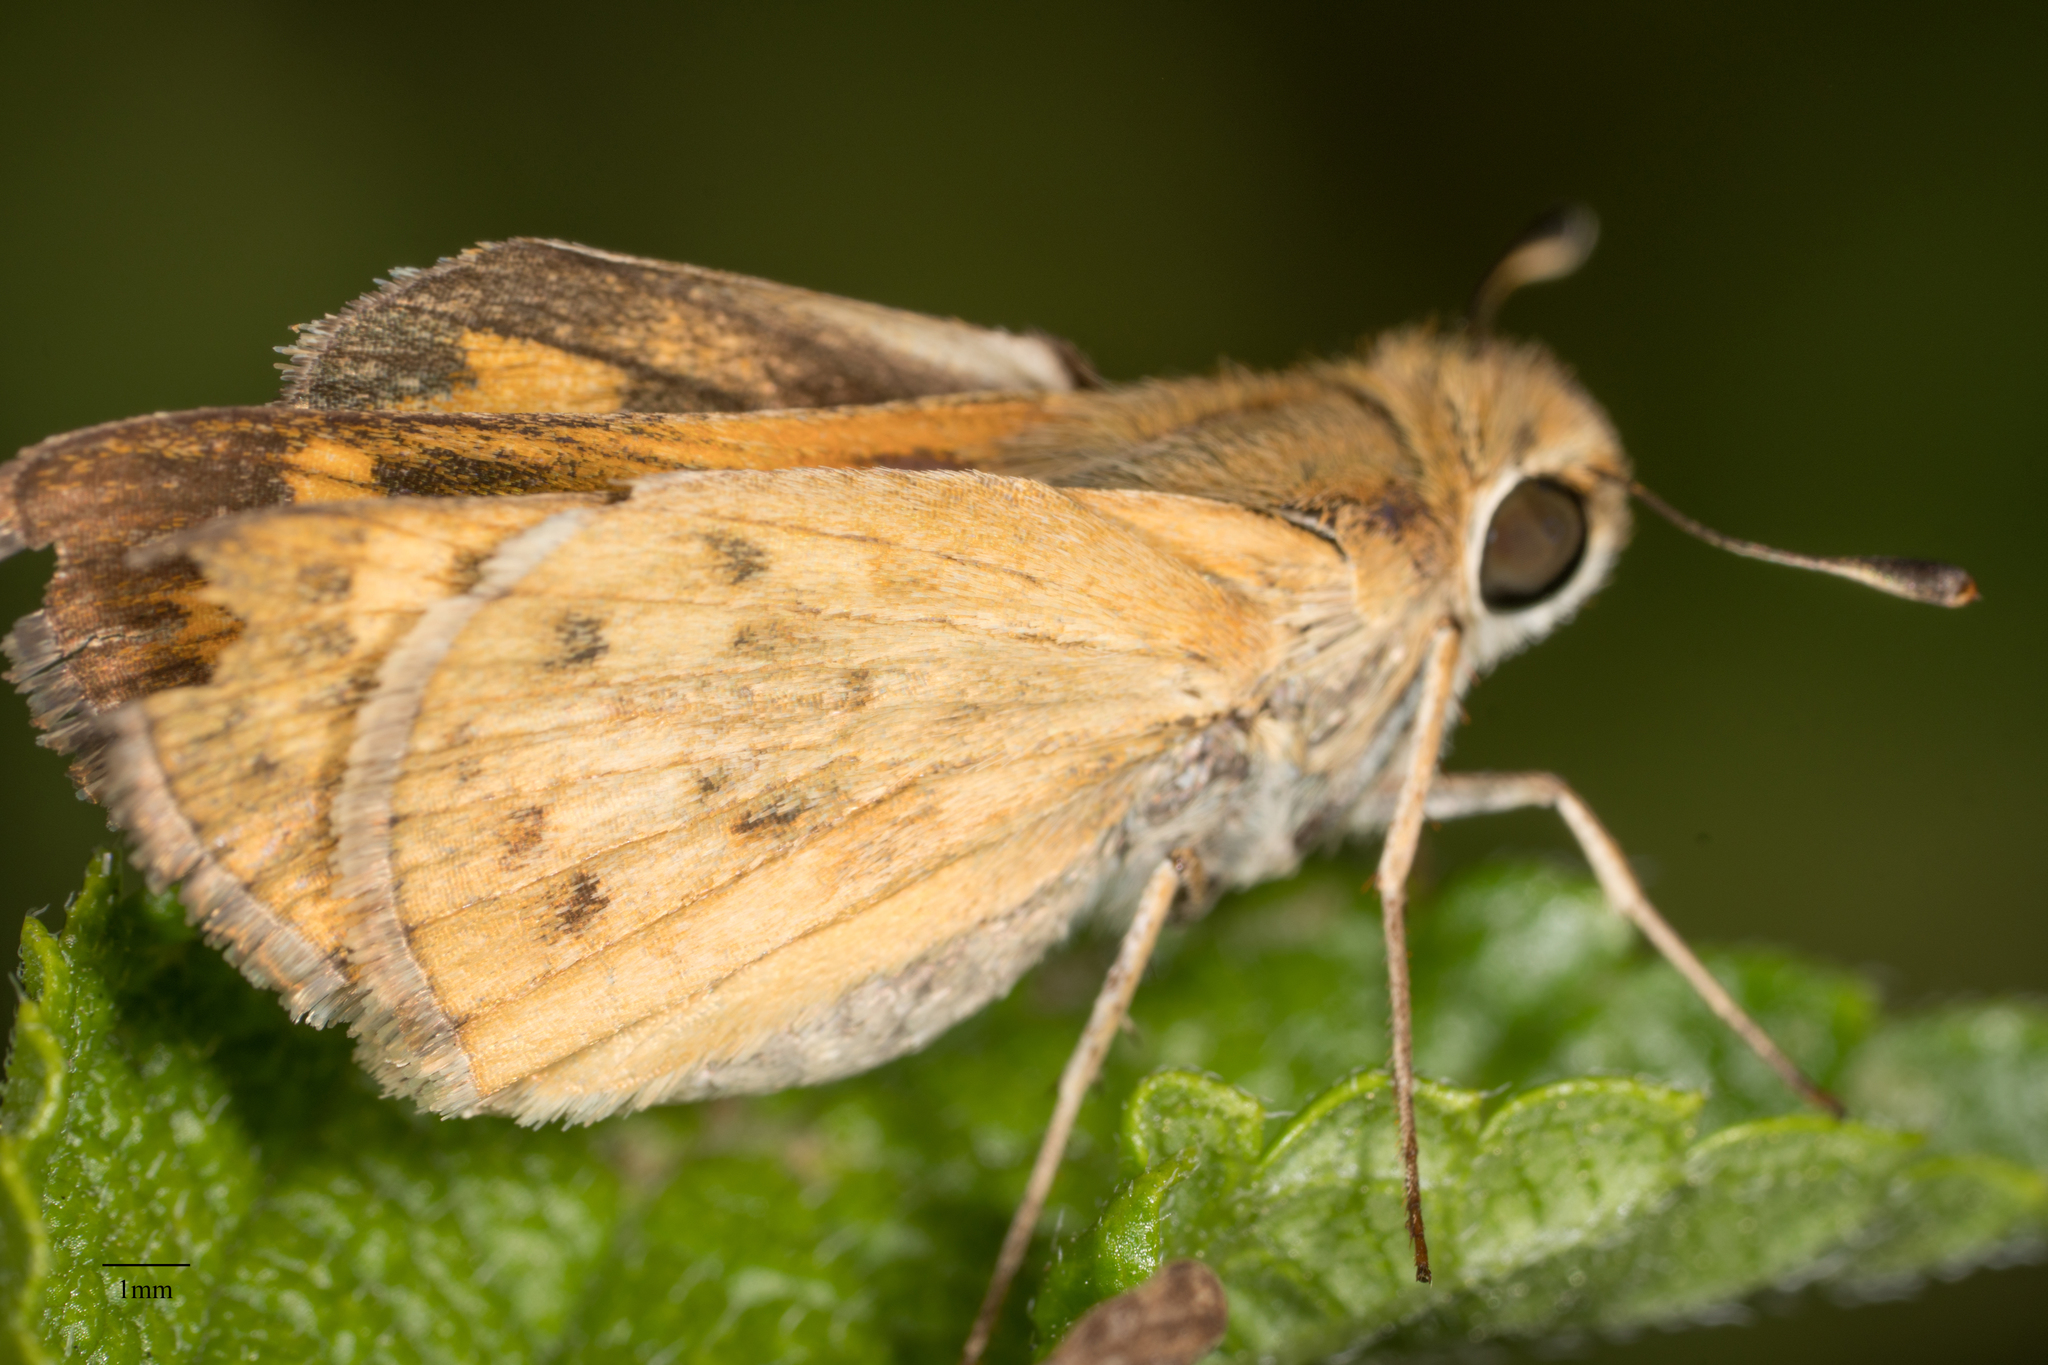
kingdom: Animalia
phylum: Arthropoda
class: Insecta
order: Lepidoptera
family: Hesperiidae
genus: Hylephila
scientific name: Hylephila phyleus
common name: Fiery skipper
